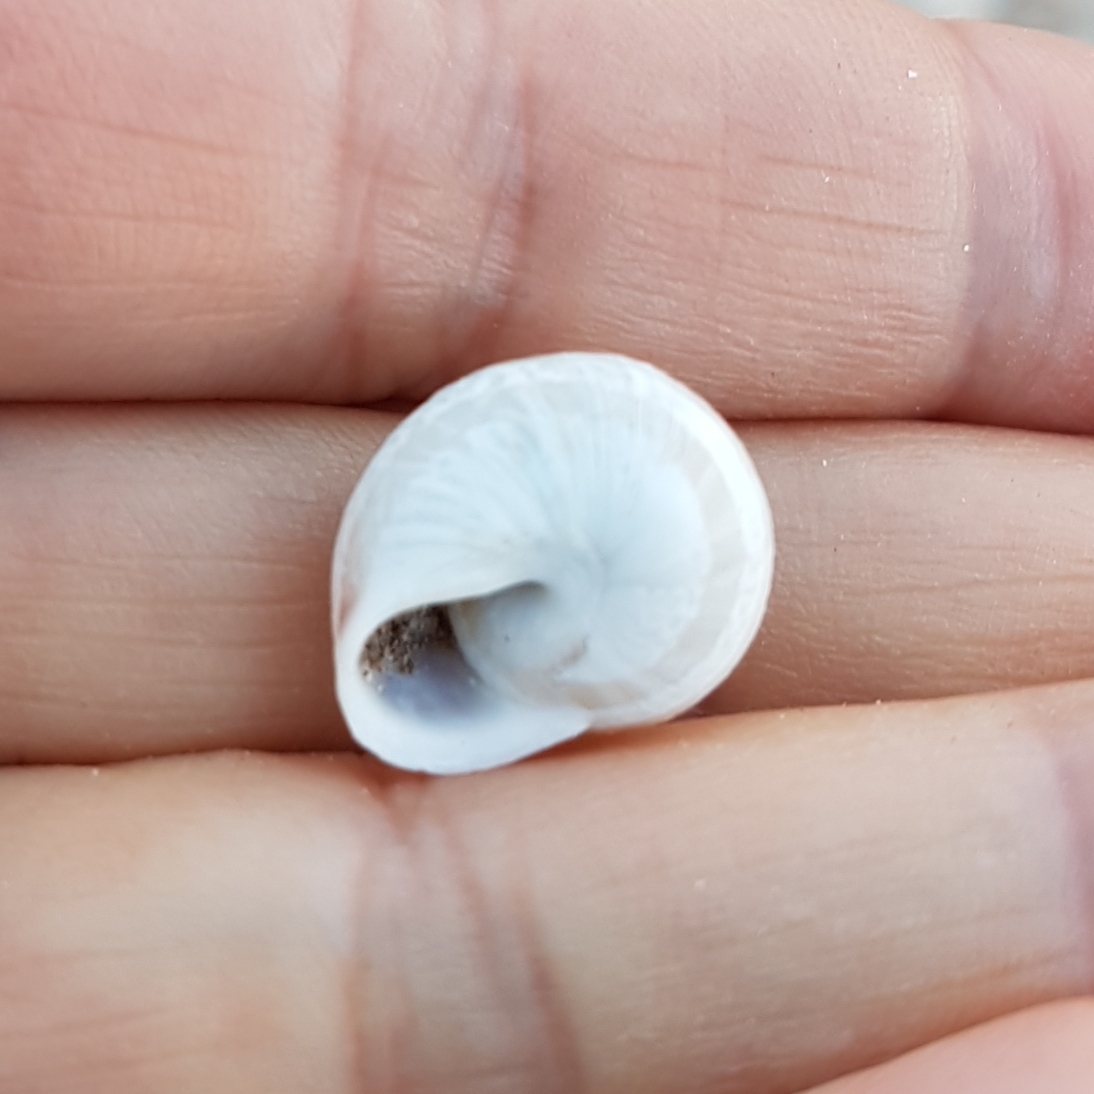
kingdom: Animalia
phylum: Mollusca
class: Gastropoda
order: Stylommatophora
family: Helicidae
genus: Iberellus
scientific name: Iberellus minoricensis
